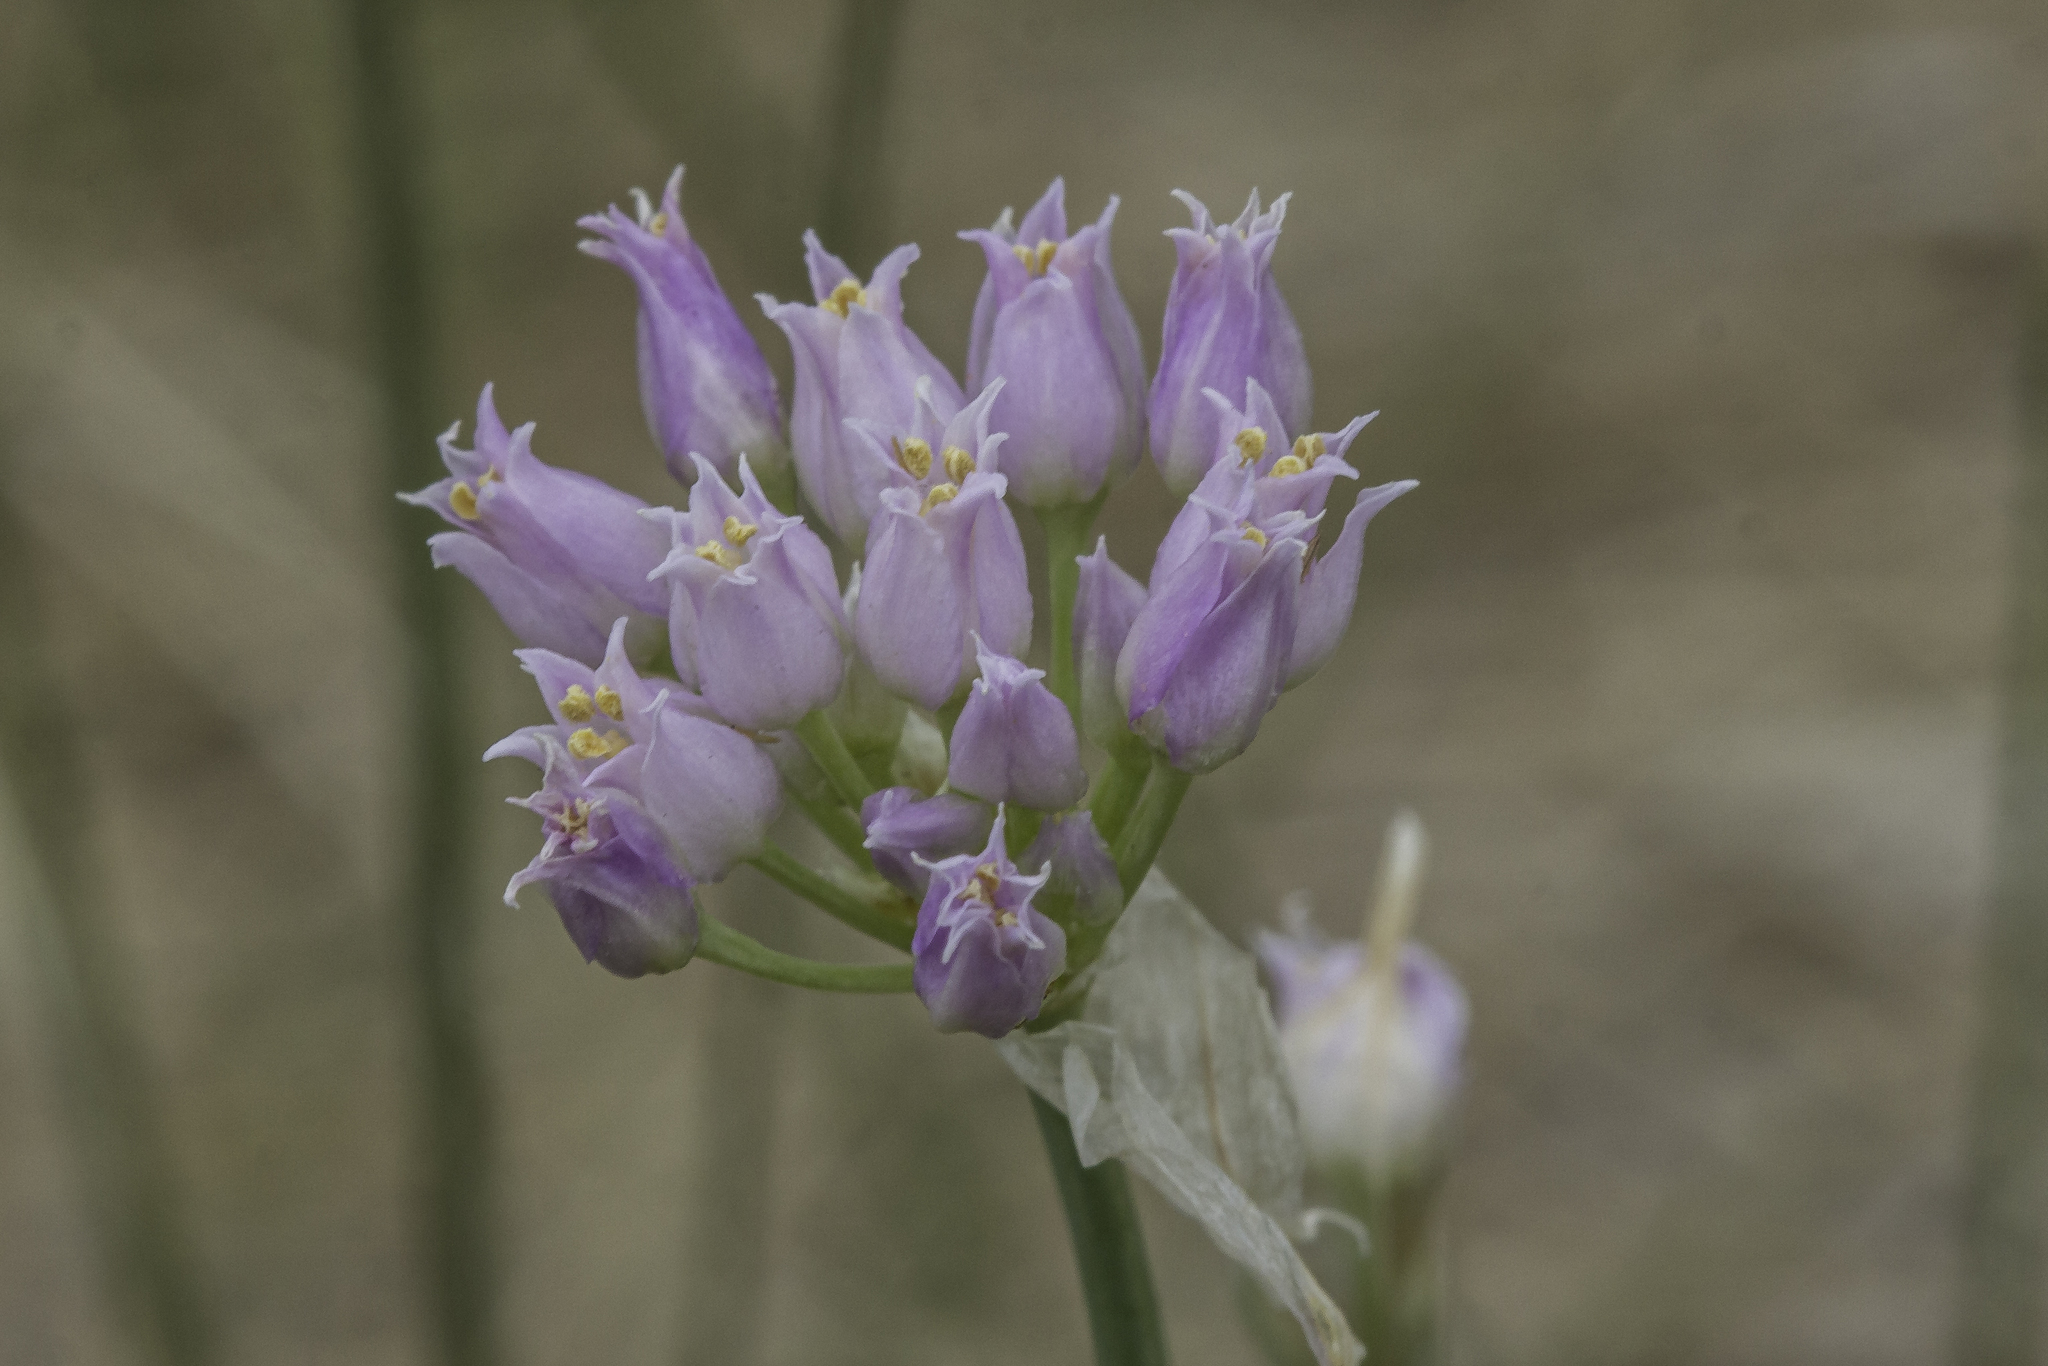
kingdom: Plantae
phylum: Tracheophyta
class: Liliopsida
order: Asparagales
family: Amaryllidaceae
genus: Allium
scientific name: Allium geyeri
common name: Geyer's onion
